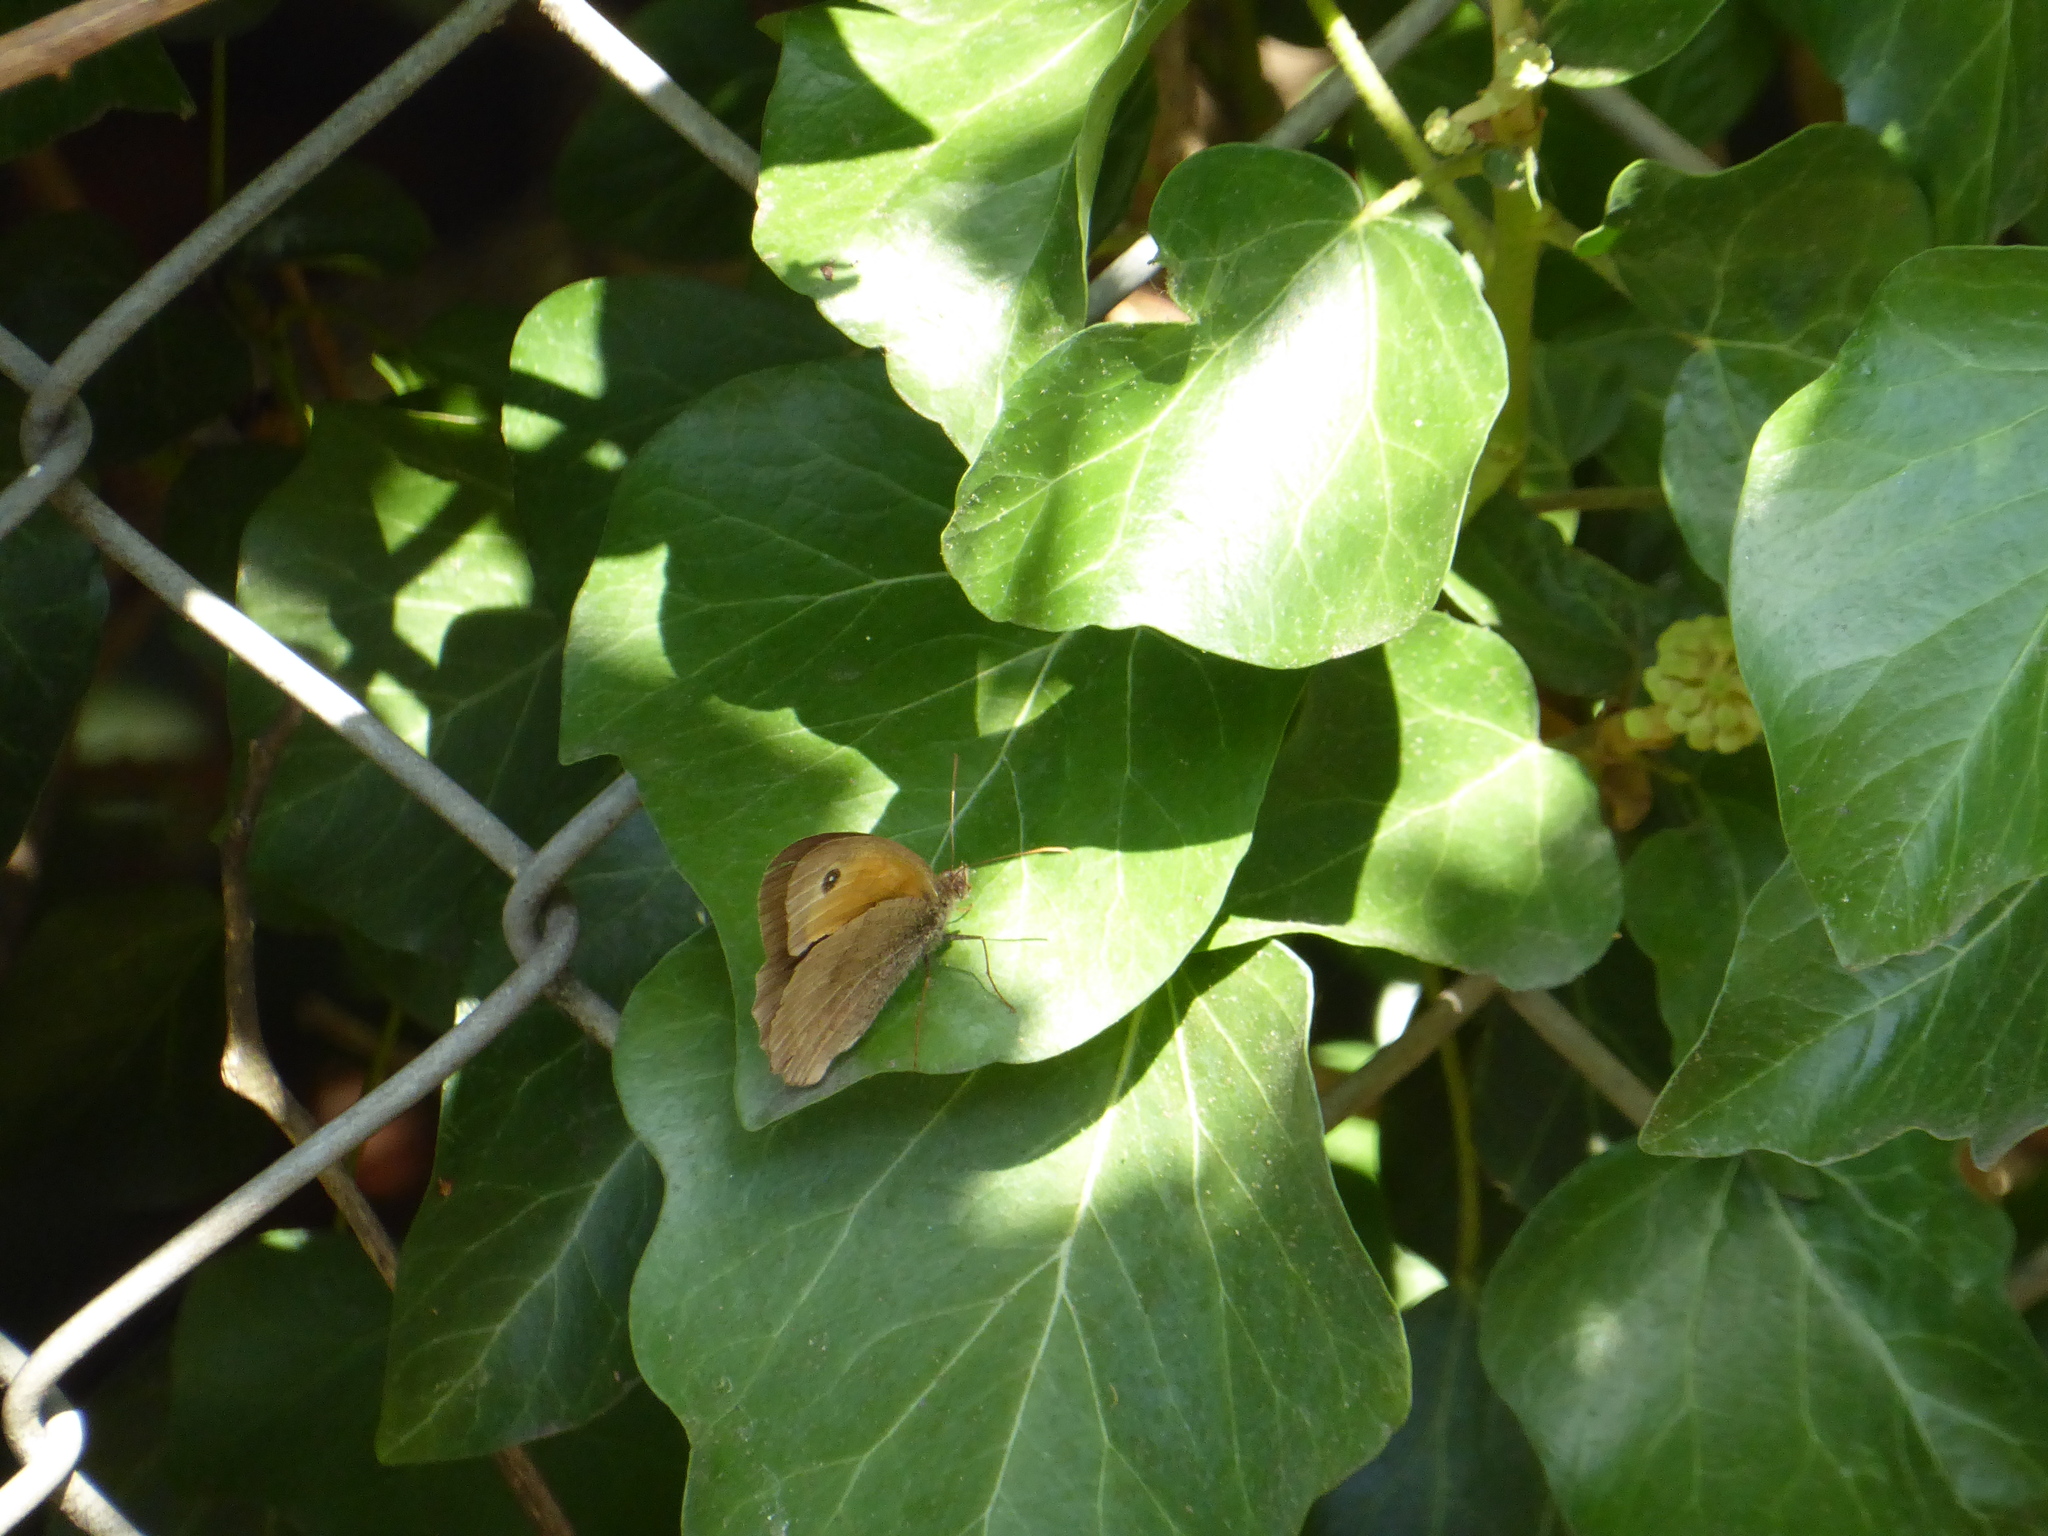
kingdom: Animalia
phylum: Arthropoda
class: Insecta
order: Lepidoptera
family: Nymphalidae
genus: Maniola
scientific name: Maniola jurtina
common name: Meadow brown
